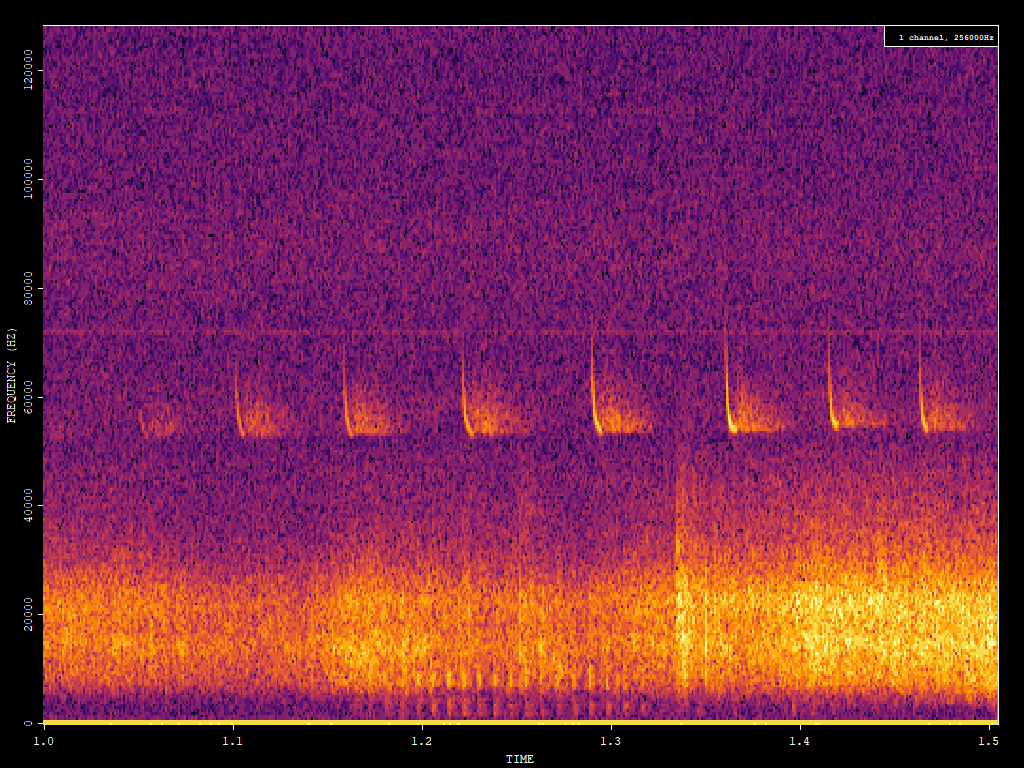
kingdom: Animalia
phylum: Chordata
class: Mammalia
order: Chiroptera
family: Vespertilionidae
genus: Pipistrellus
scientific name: Pipistrellus pygmaeus
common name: Soprano pipistrelle
